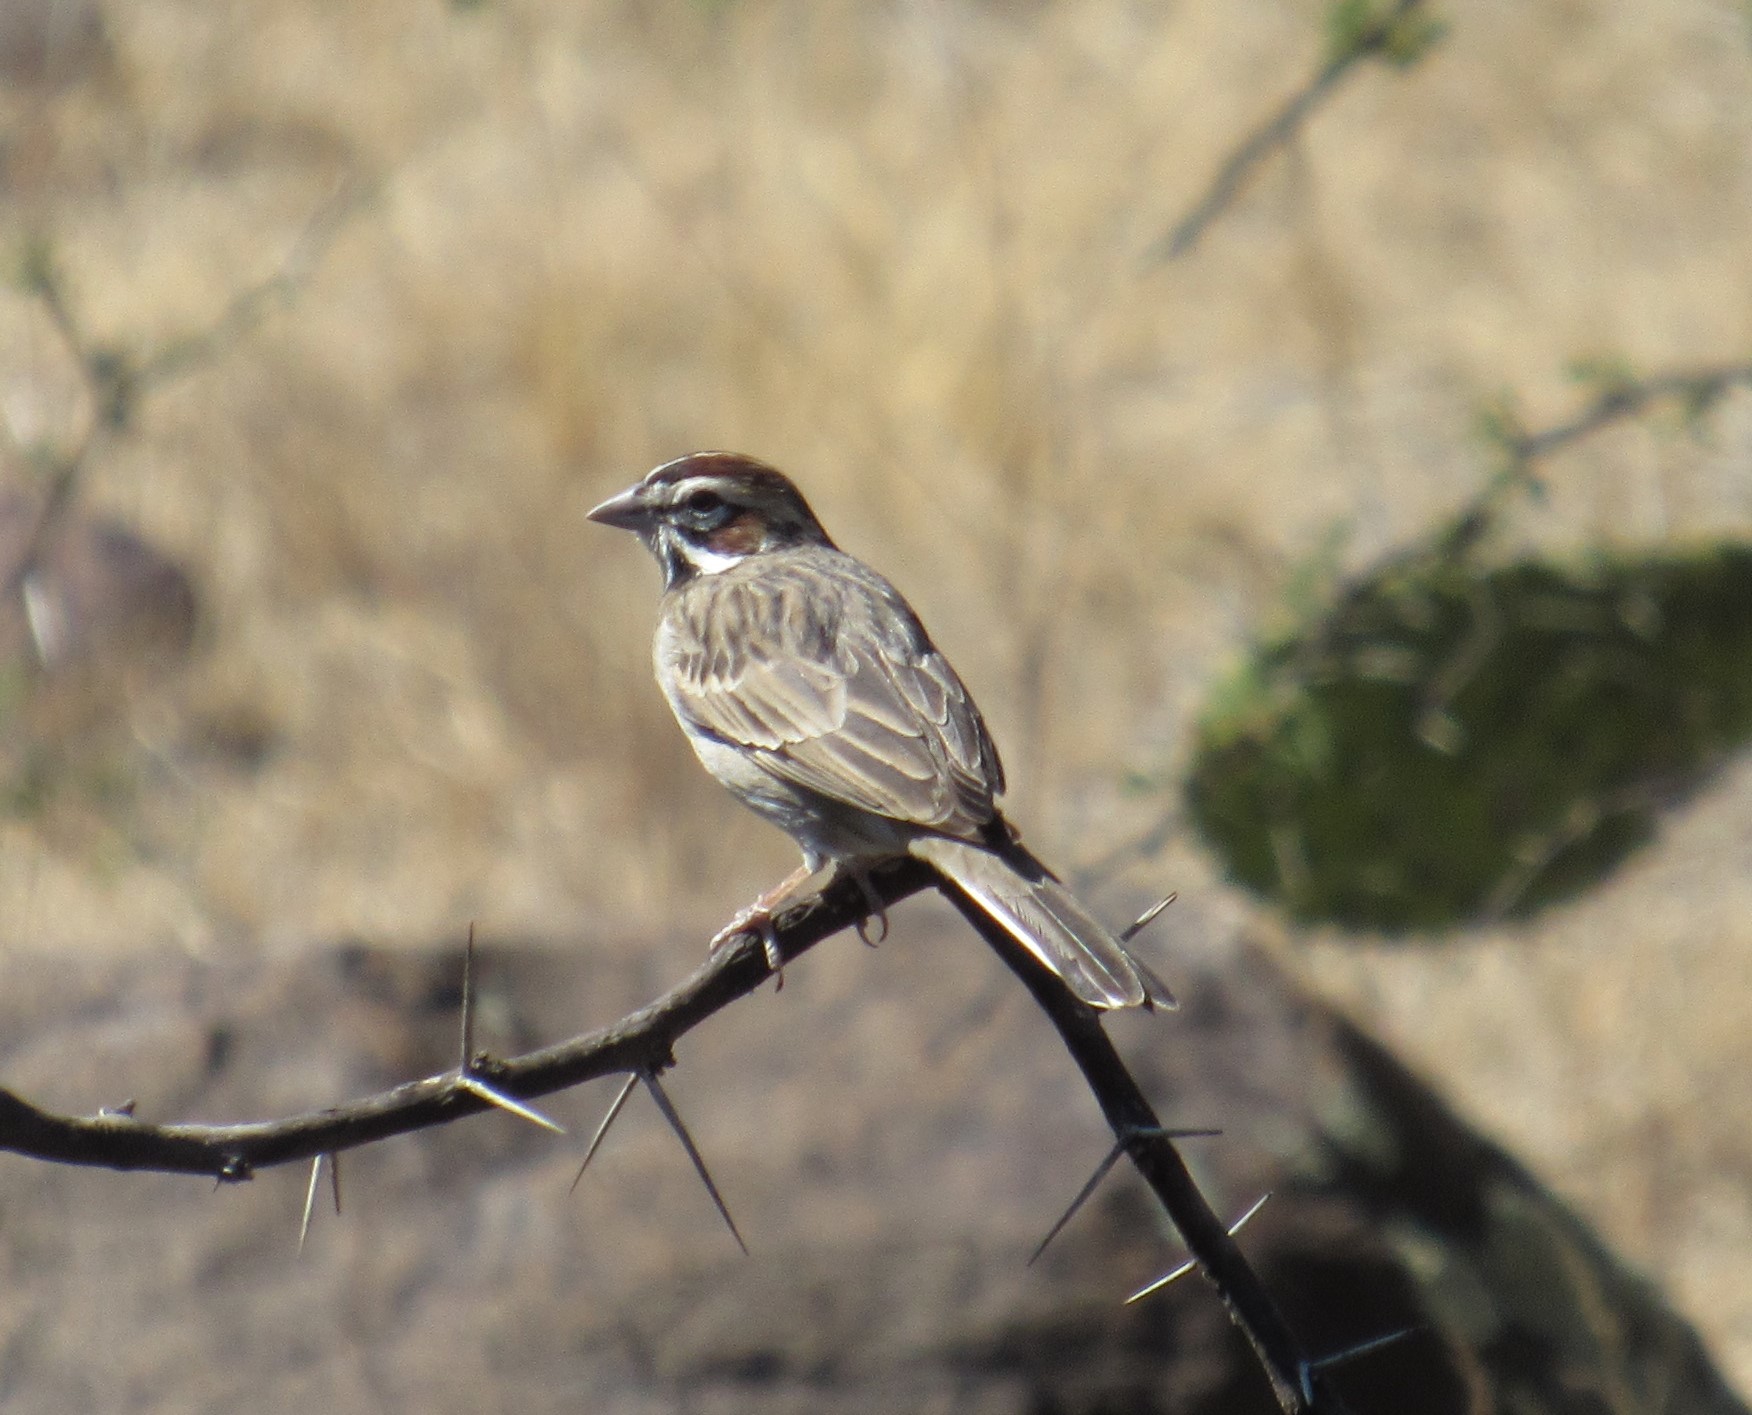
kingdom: Animalia
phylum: Chordata
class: Aves
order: Passeriformes
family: Passerellidae
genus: Chondestes
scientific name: Chondestes grammacus
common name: Lark sparrow
